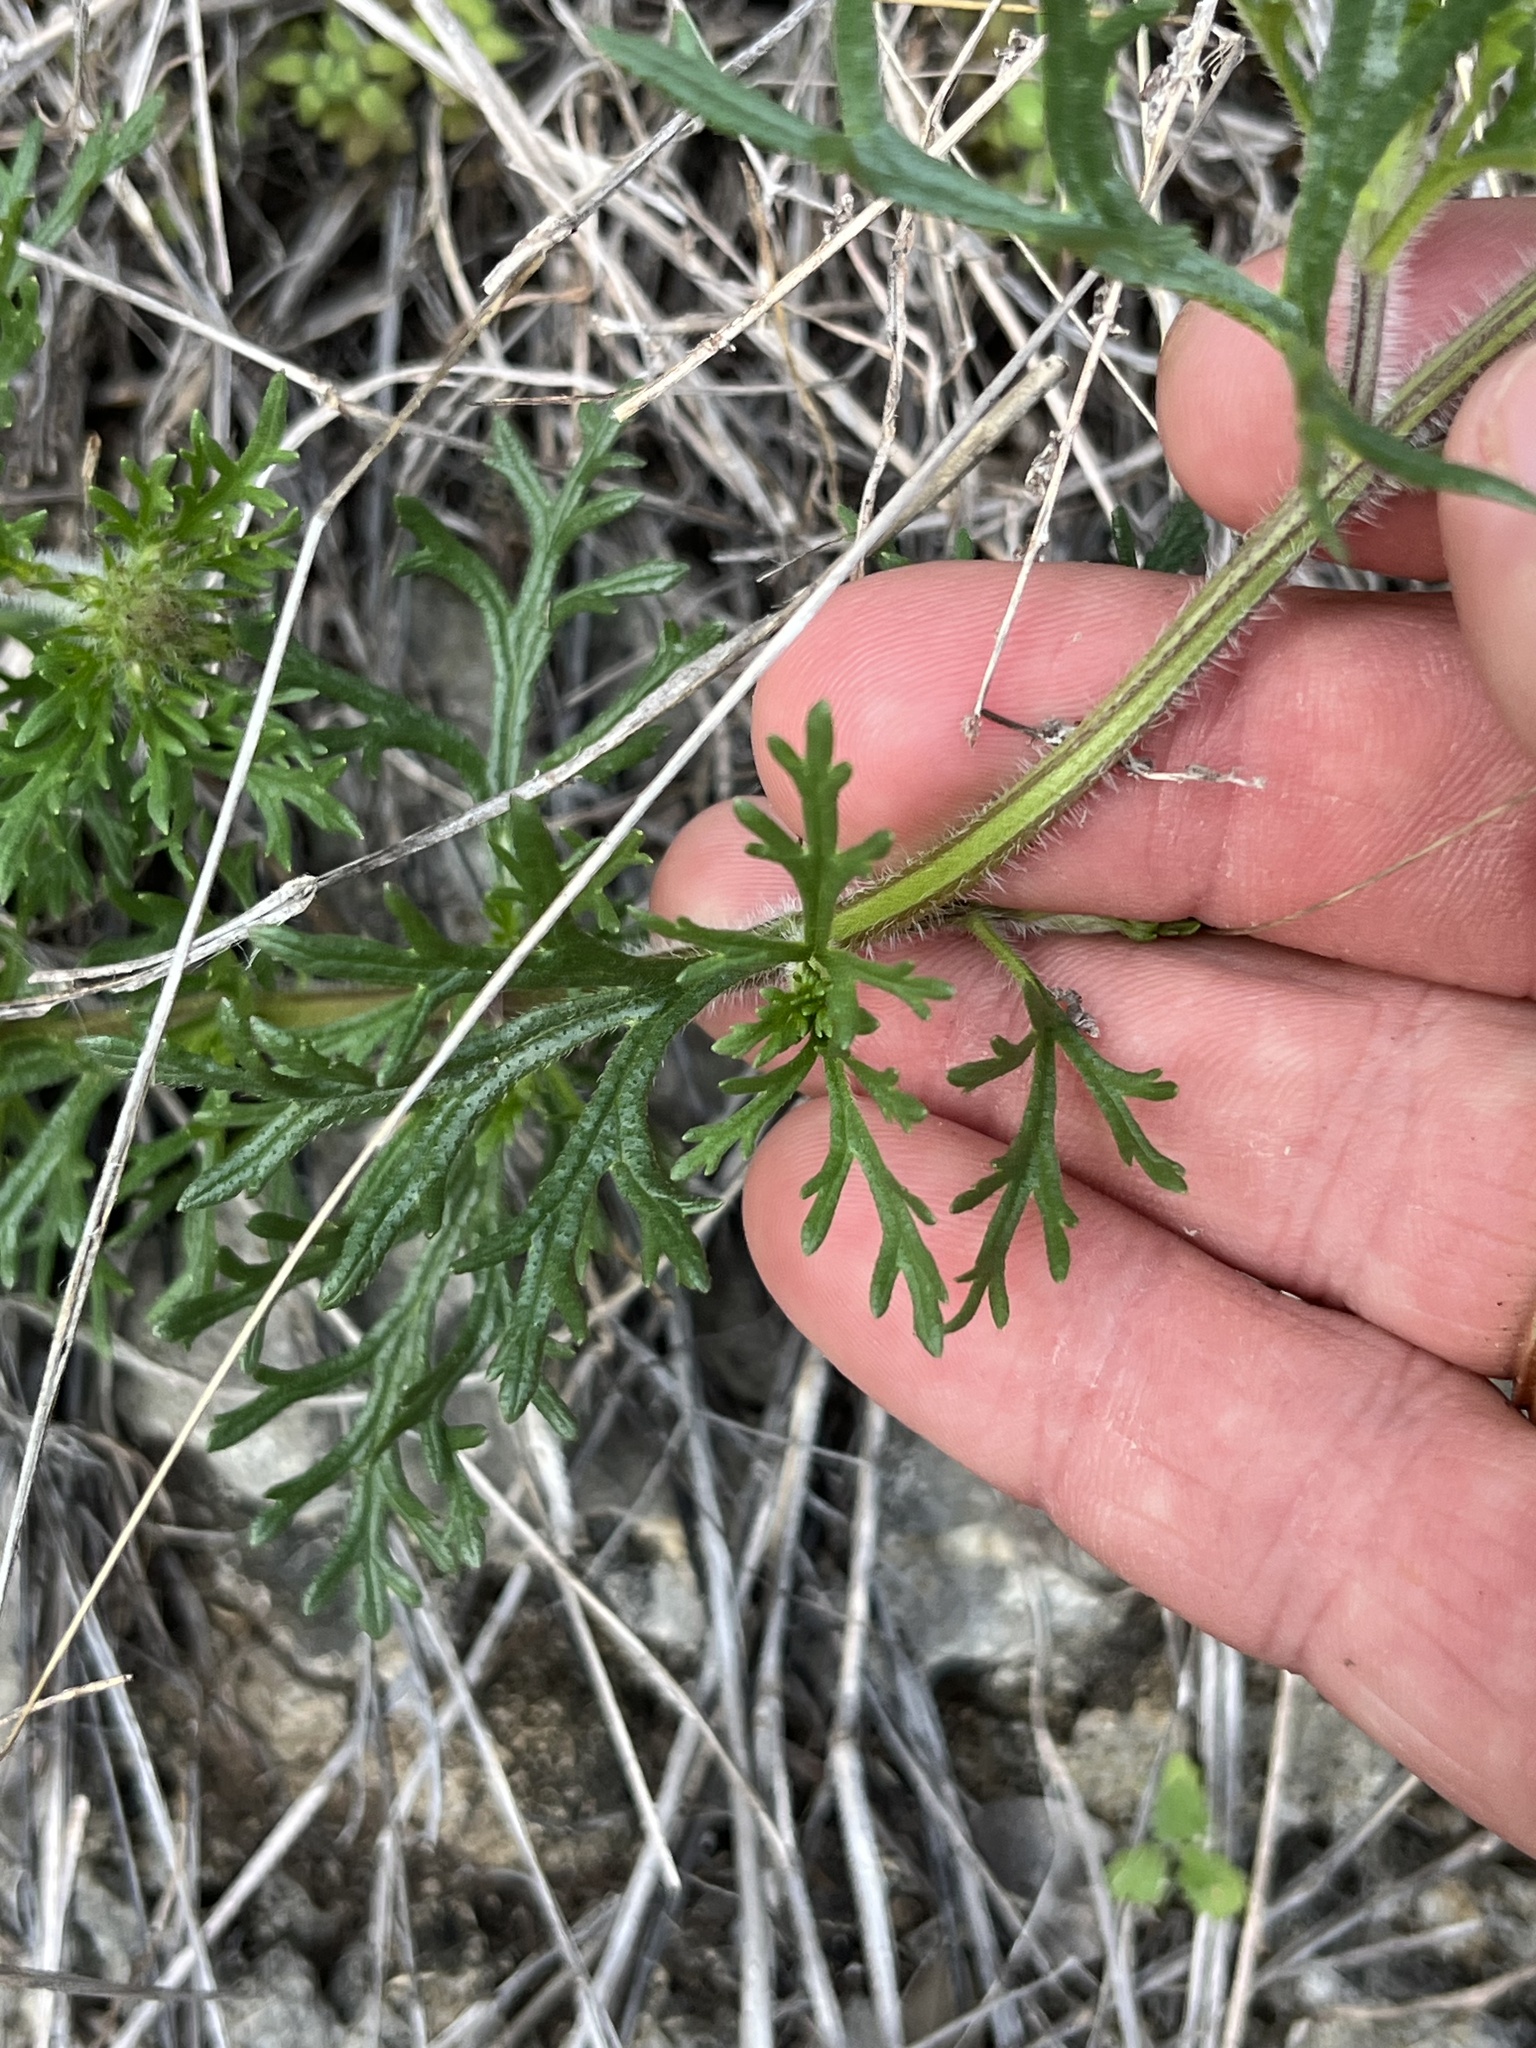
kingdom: Plantae
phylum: Tracheophyta
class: Magnoliopsida
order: Lamiales
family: Verbenaceae
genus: Verbena
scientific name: Verbena bipinnatifida
